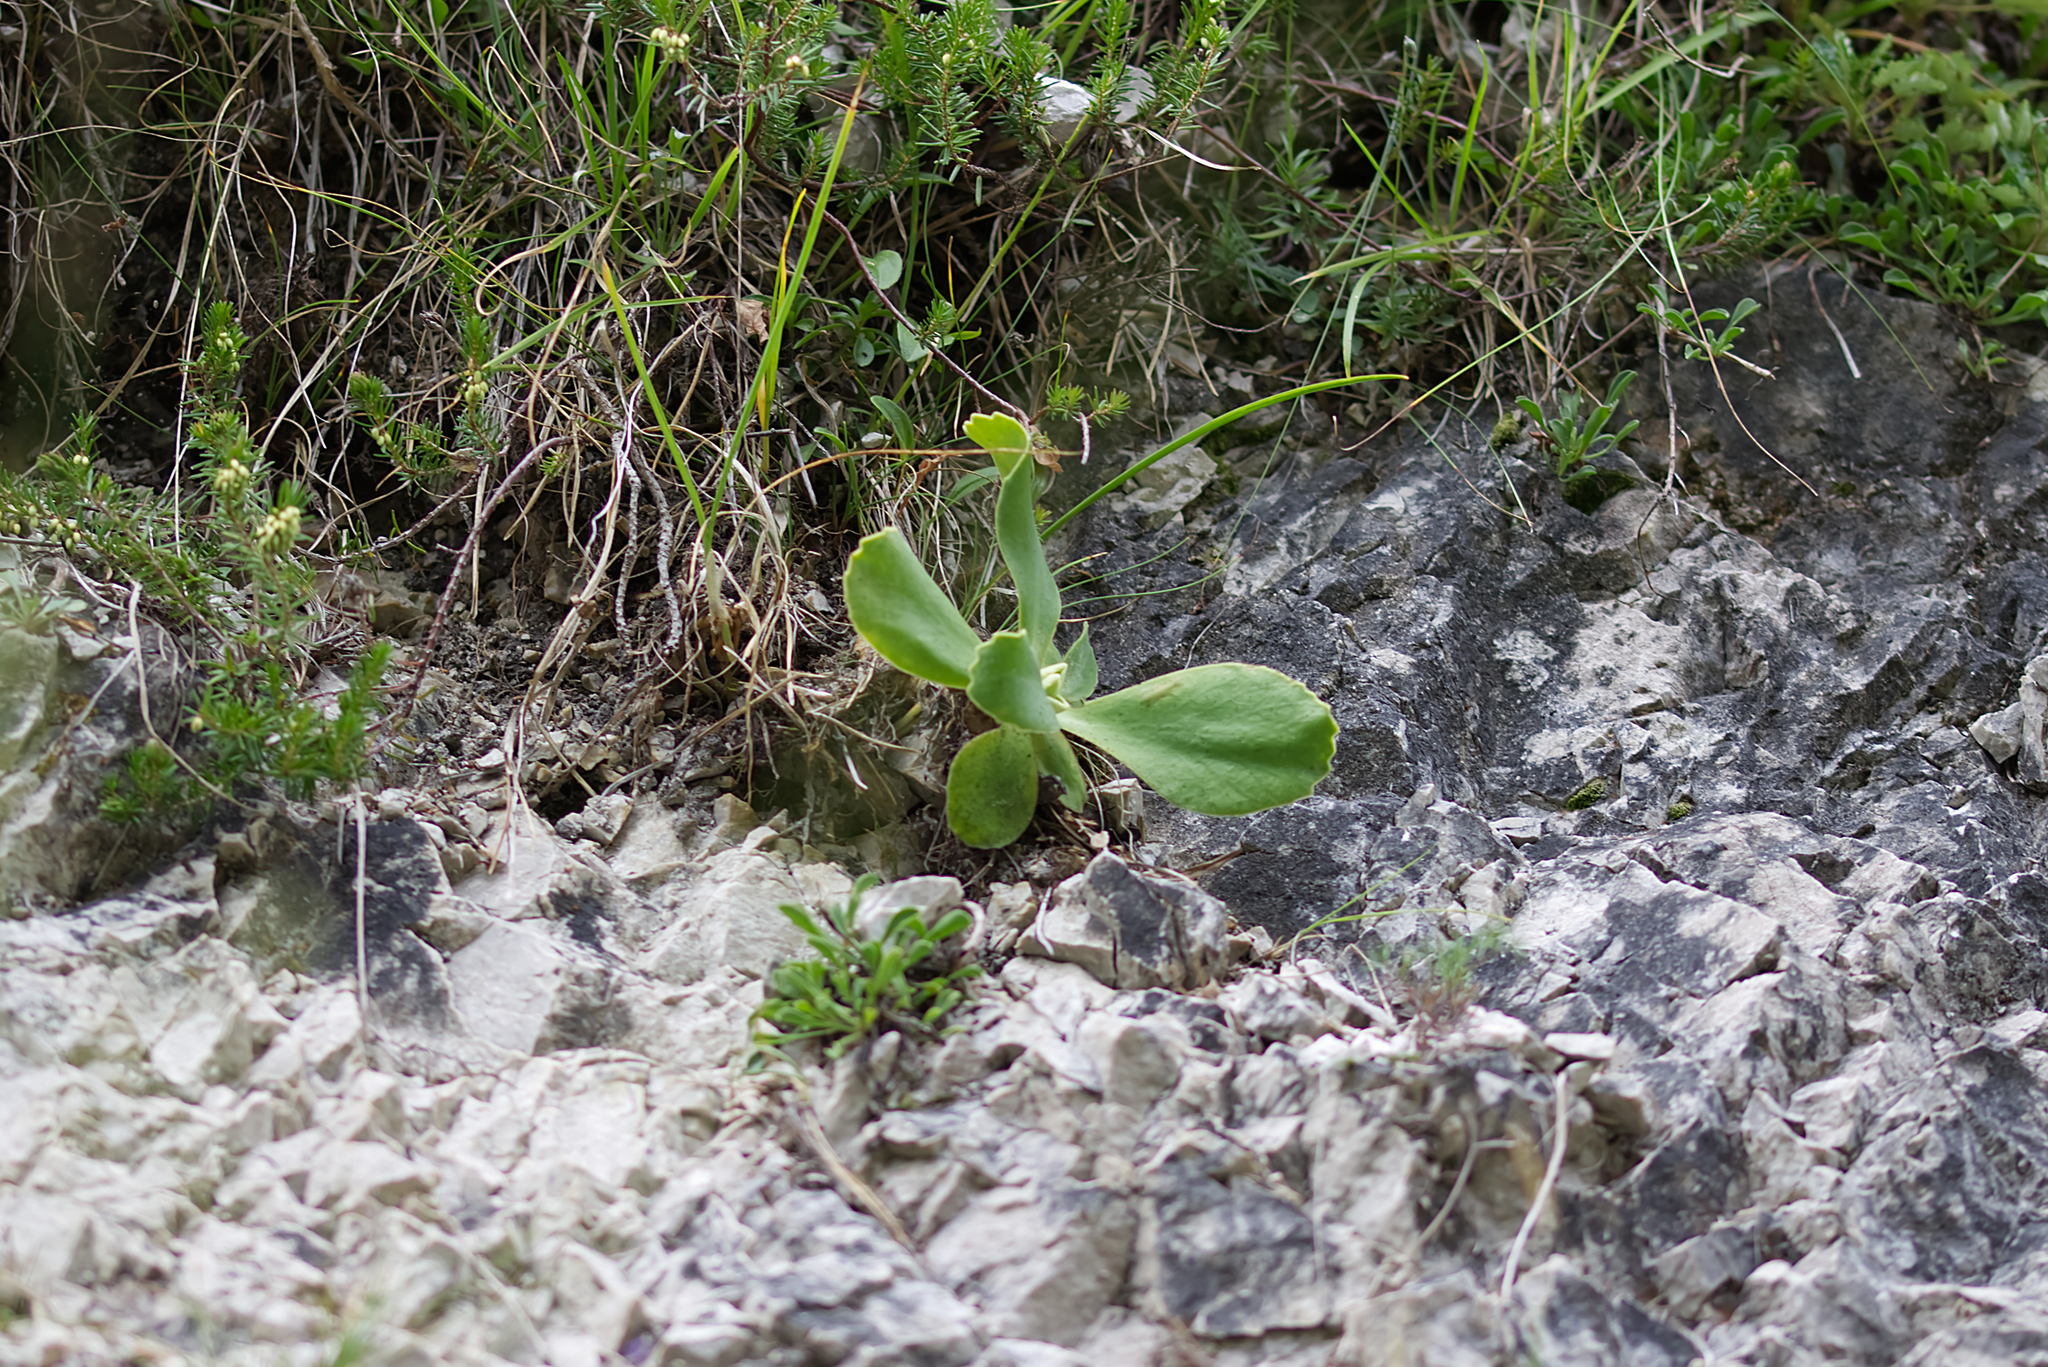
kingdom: Plantae
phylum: Tracheophyta
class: Magnoliopsida
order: Ericales
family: Primulaceae
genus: Primula
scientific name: Primula auricula
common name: Auricula
